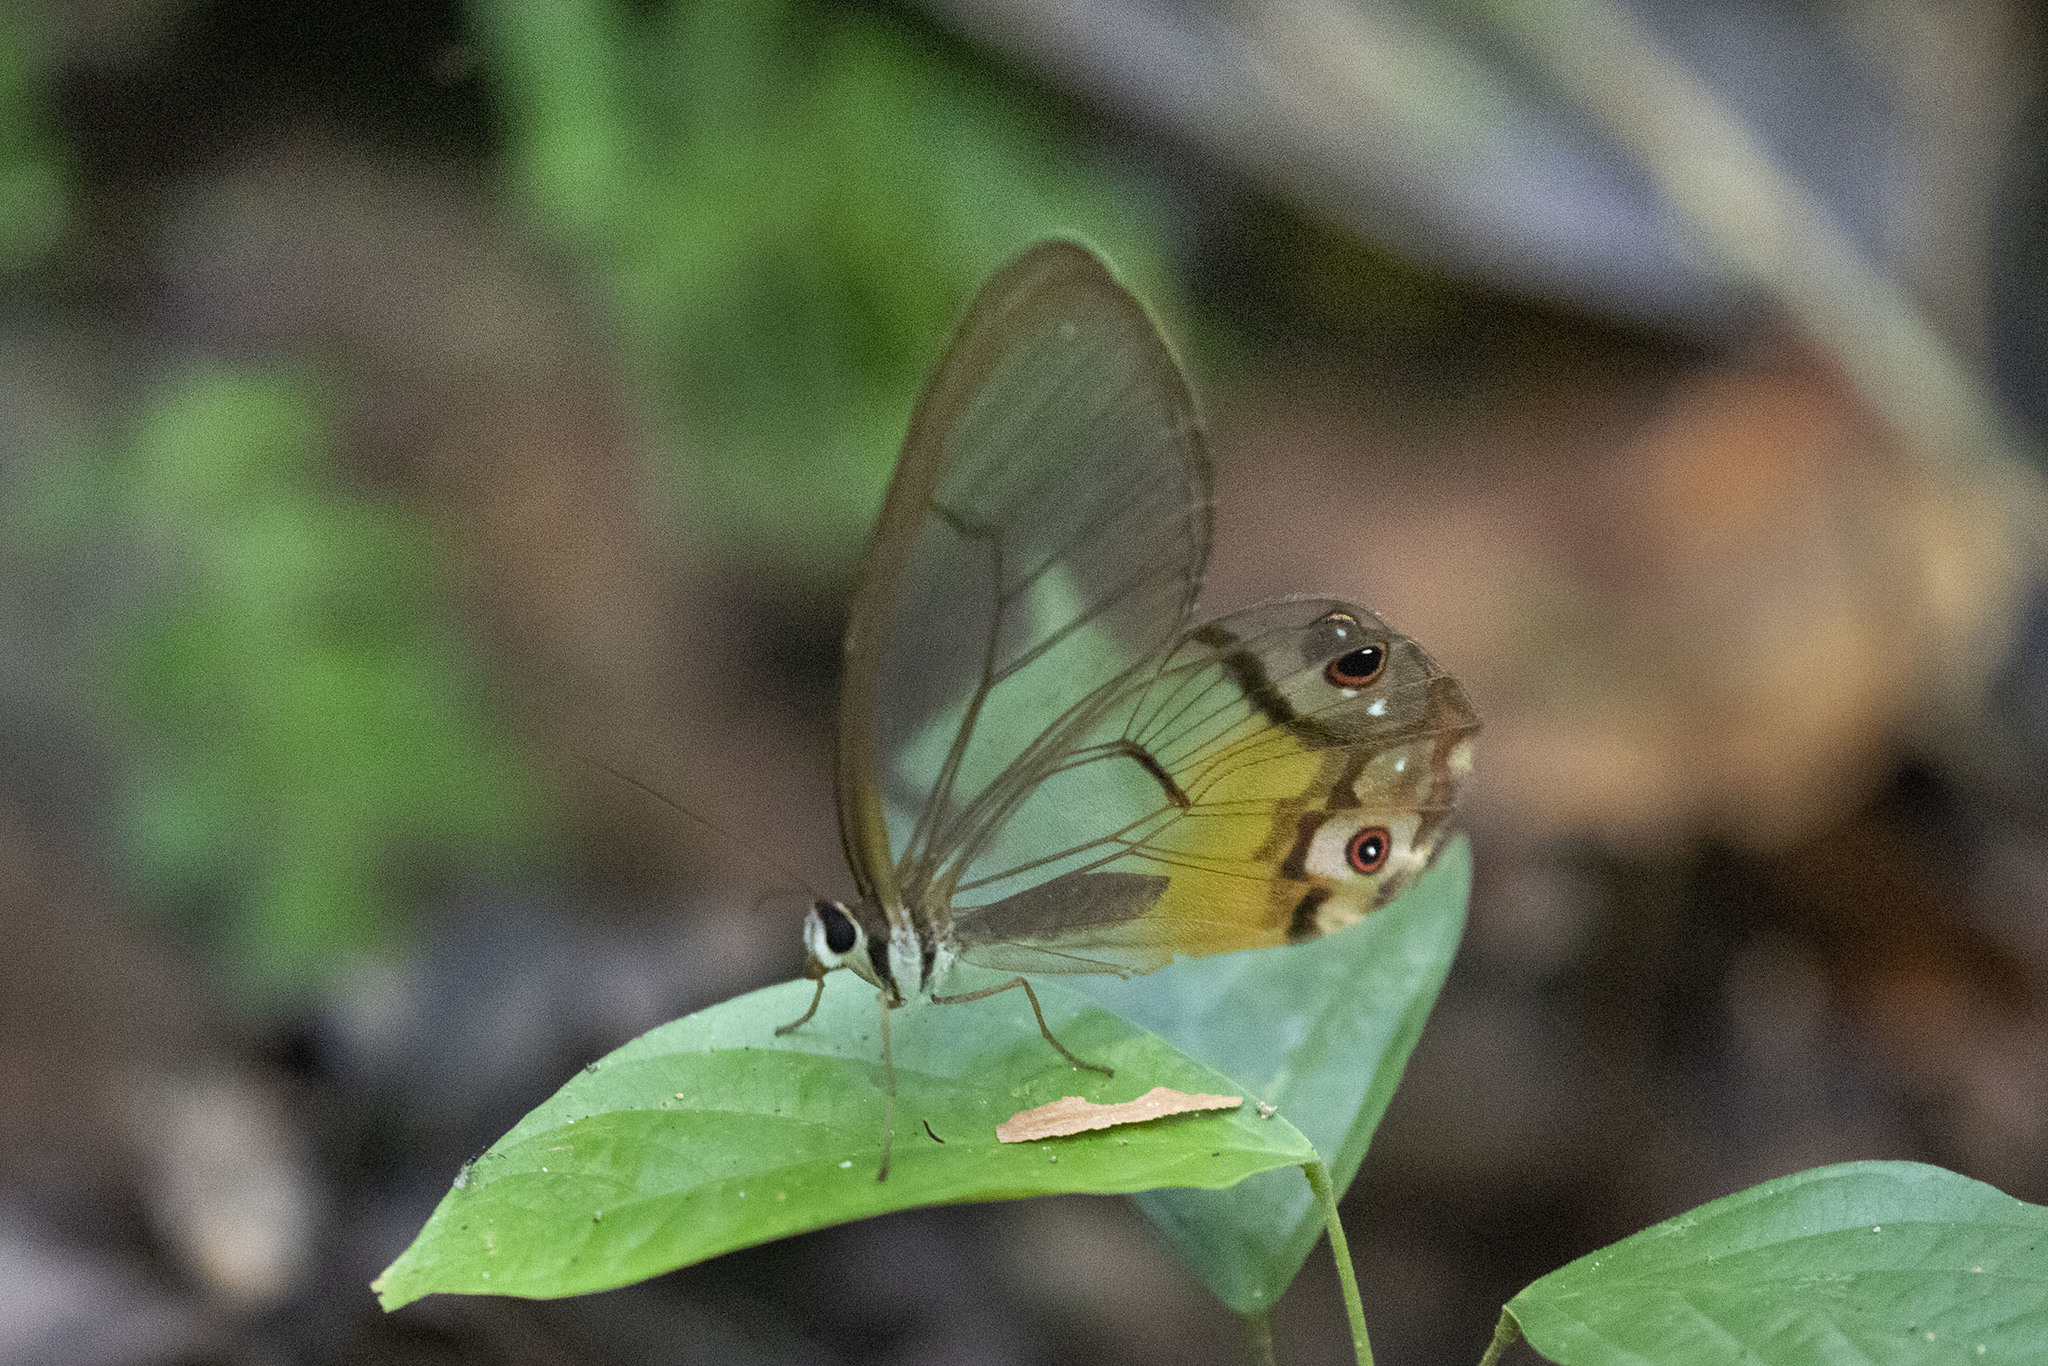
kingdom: Animalia
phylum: Arthropoda
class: Insecta
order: Lepidoptera
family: Nymphalidae
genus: Haetera
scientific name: Haetera piera
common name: Amber phantom
